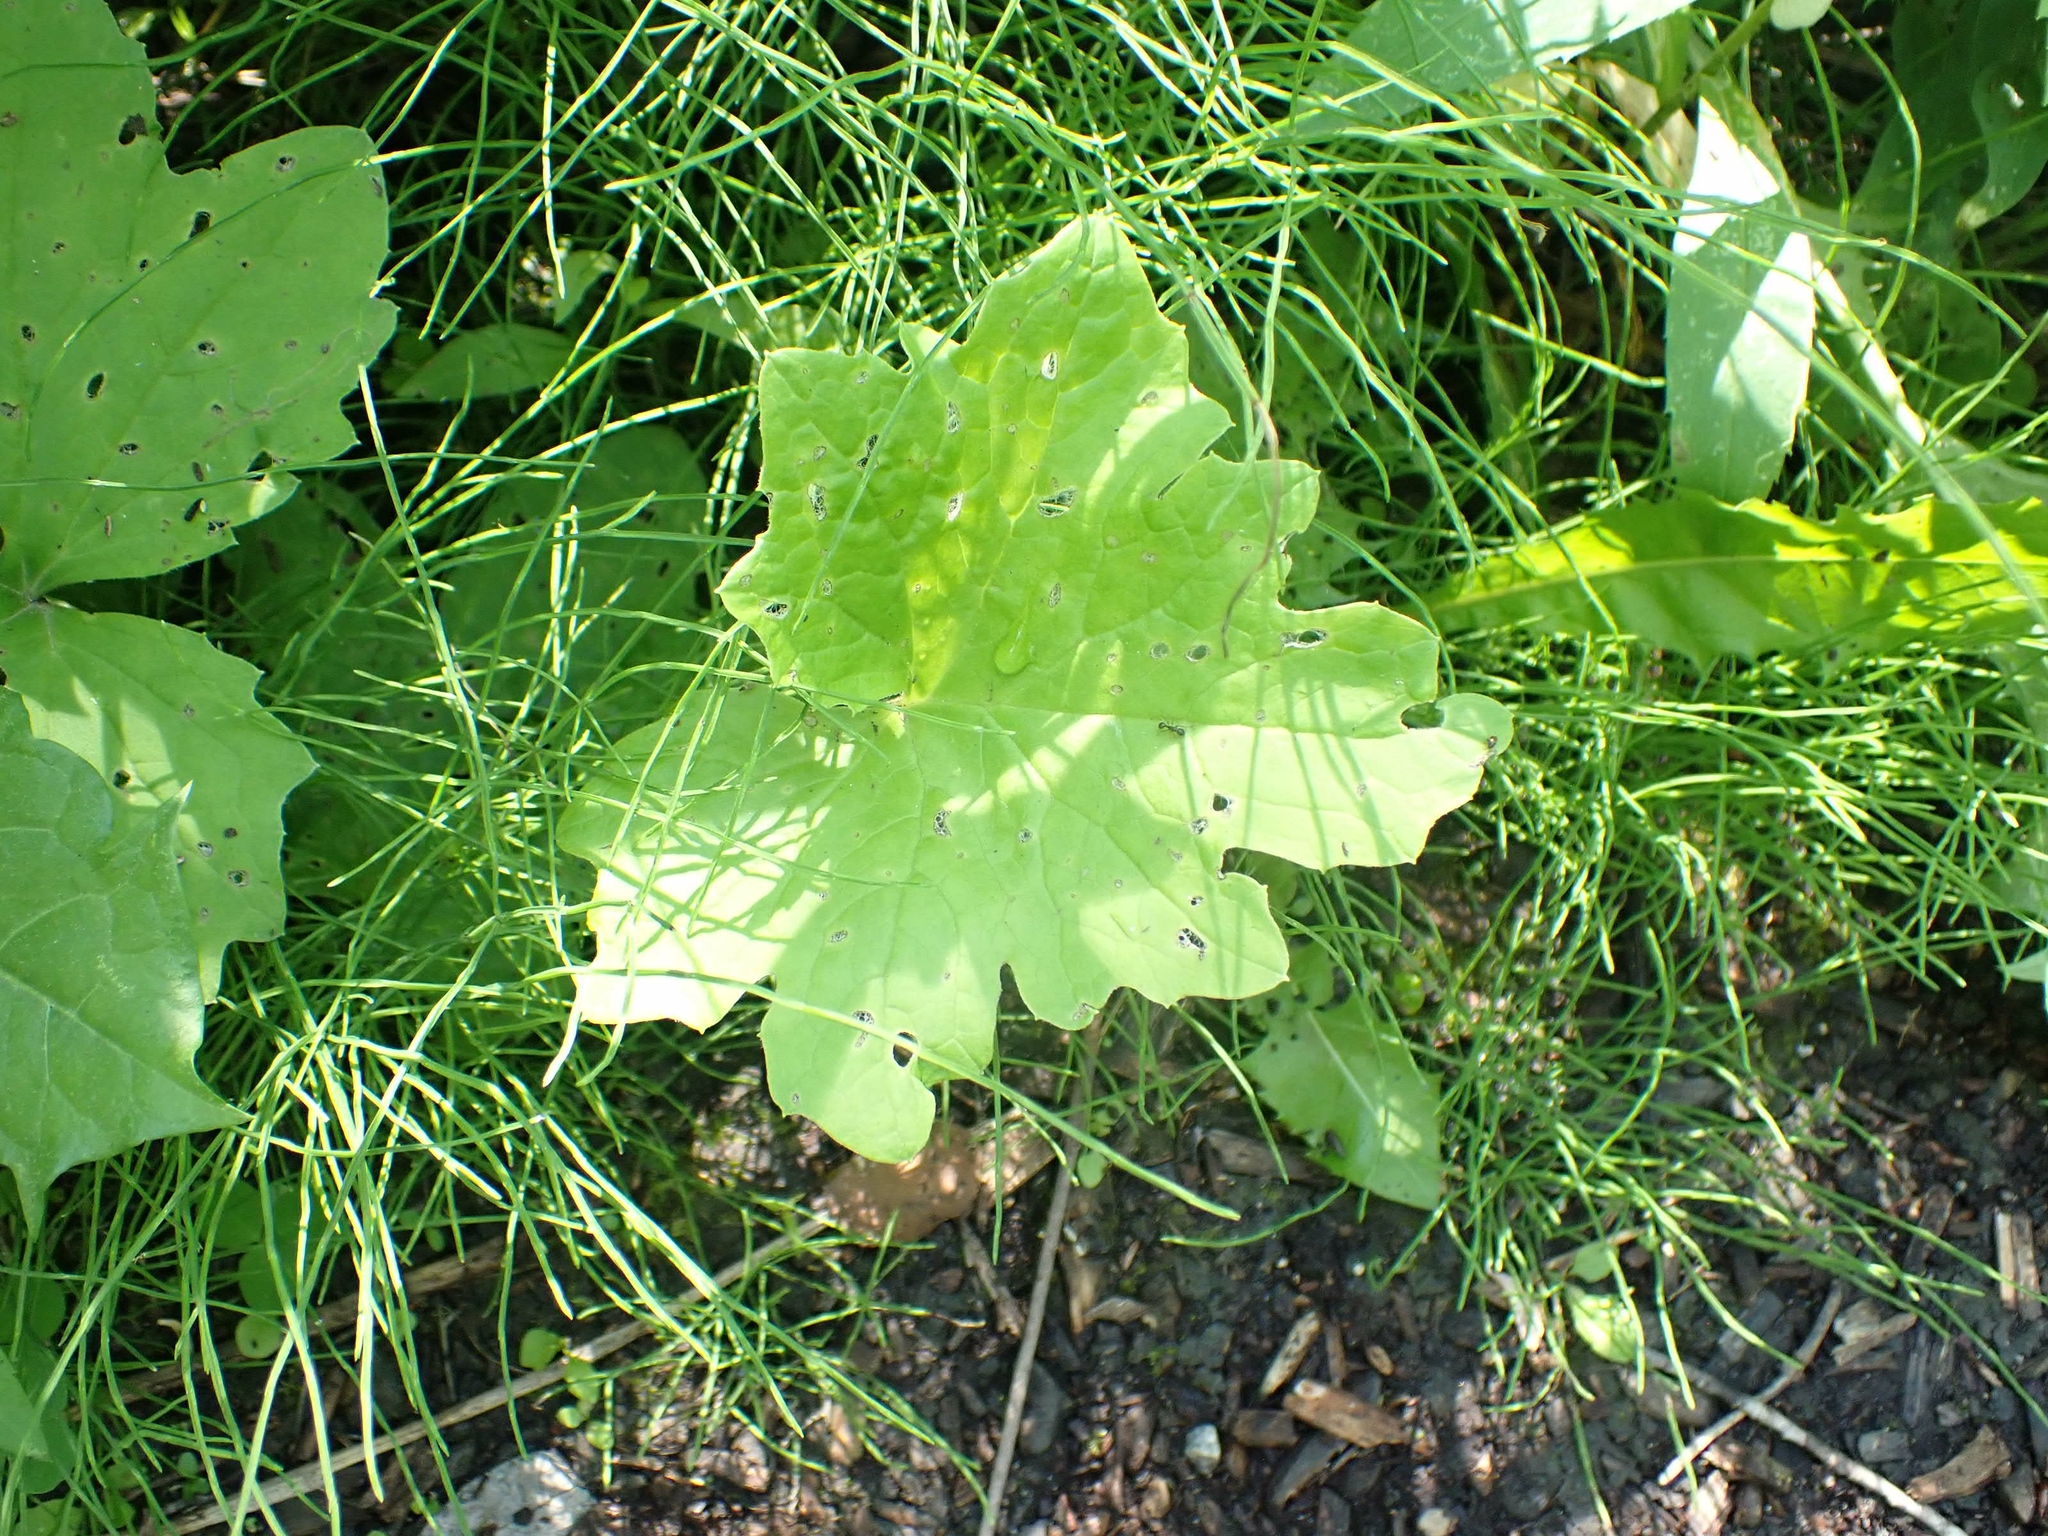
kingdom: Plantae
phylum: Tracheophyta
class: Magnoliopsida
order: Asterales
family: Asteraceae
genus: Petasites
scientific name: Petasites frigidus
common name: Arctic butterbur
